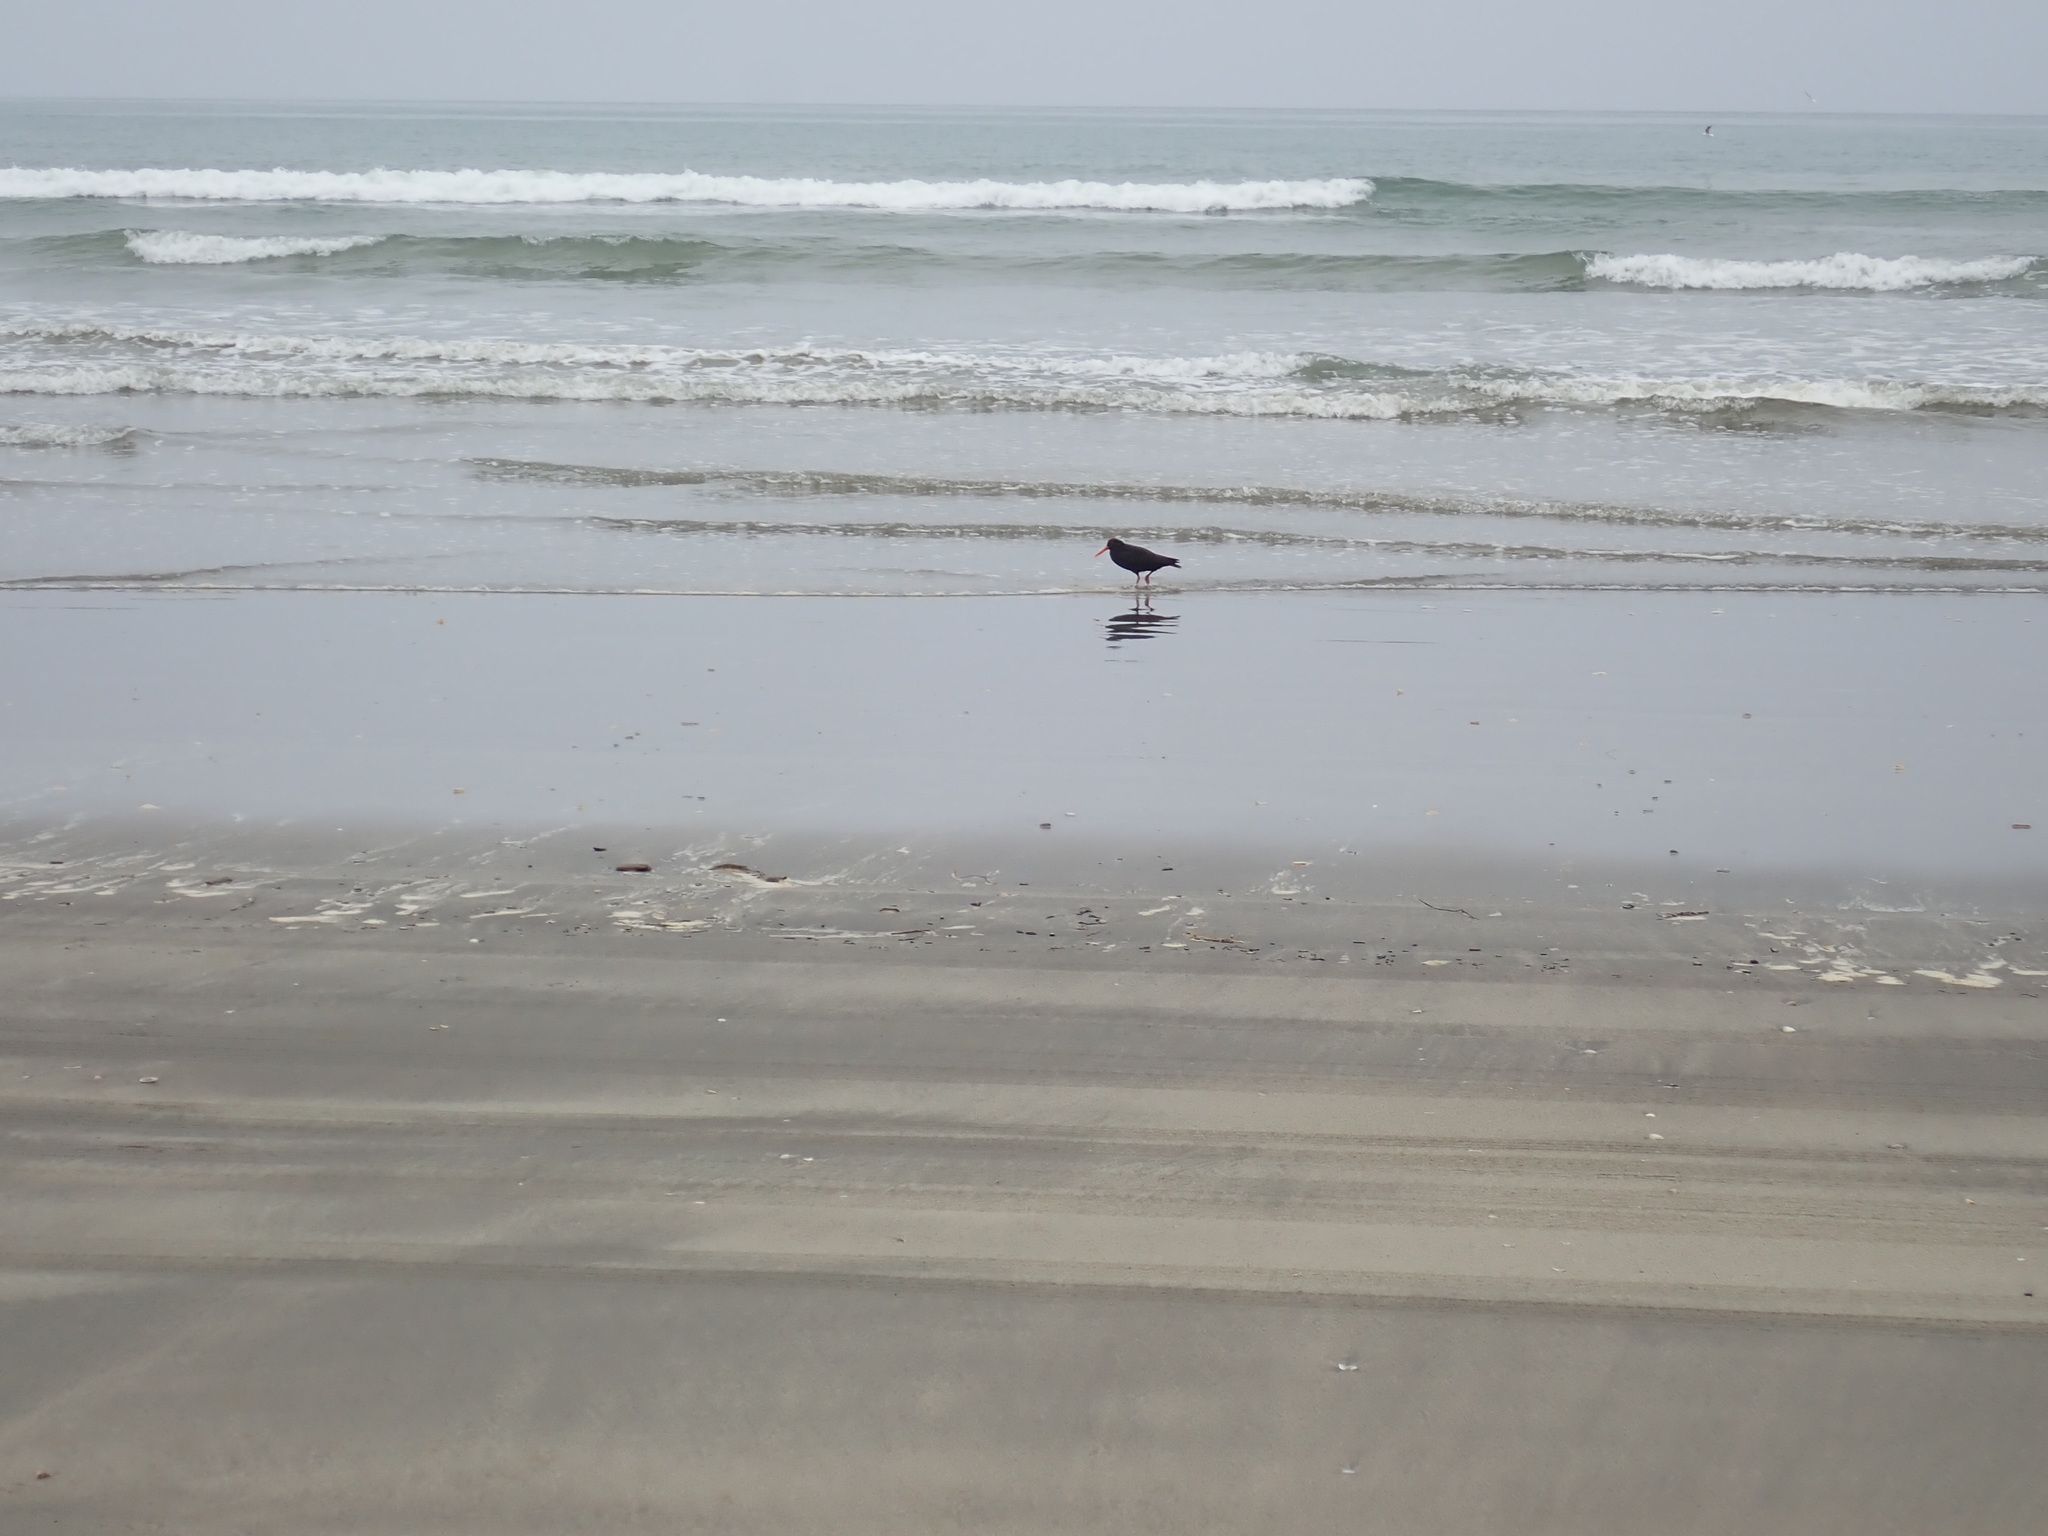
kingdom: Animalia
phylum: Chordata
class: Aves
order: Charadriiformes
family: Haematopodidae
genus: Haematopus
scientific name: Haematopus unicolor
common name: Variable oystercatcher
